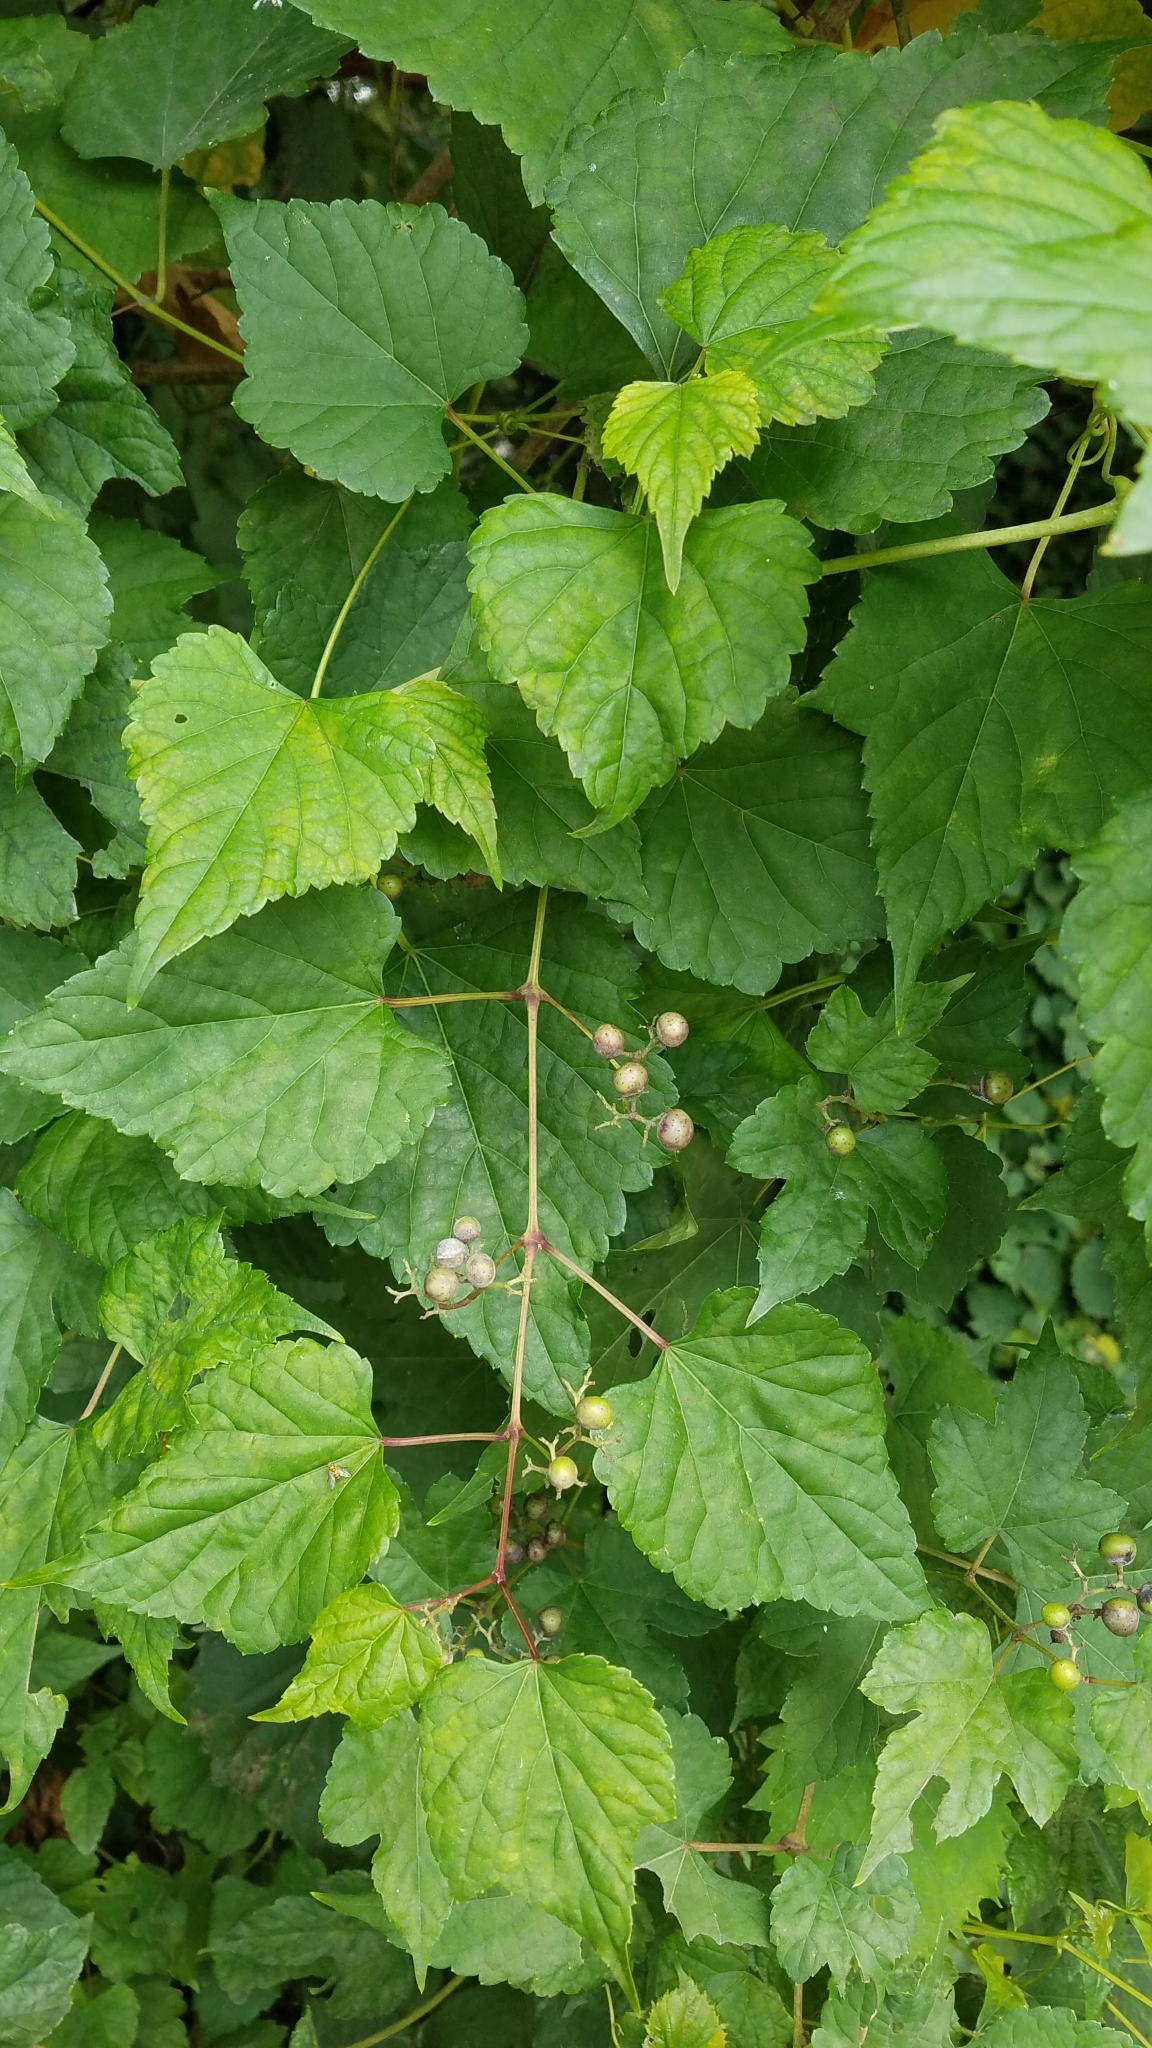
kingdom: Plantae
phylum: Tracheophyta
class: Magnoliopsida
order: Vitales
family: Vitaceae
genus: Ampelopsis
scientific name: Ampelopsis glandulosa
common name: Amur peppervine
